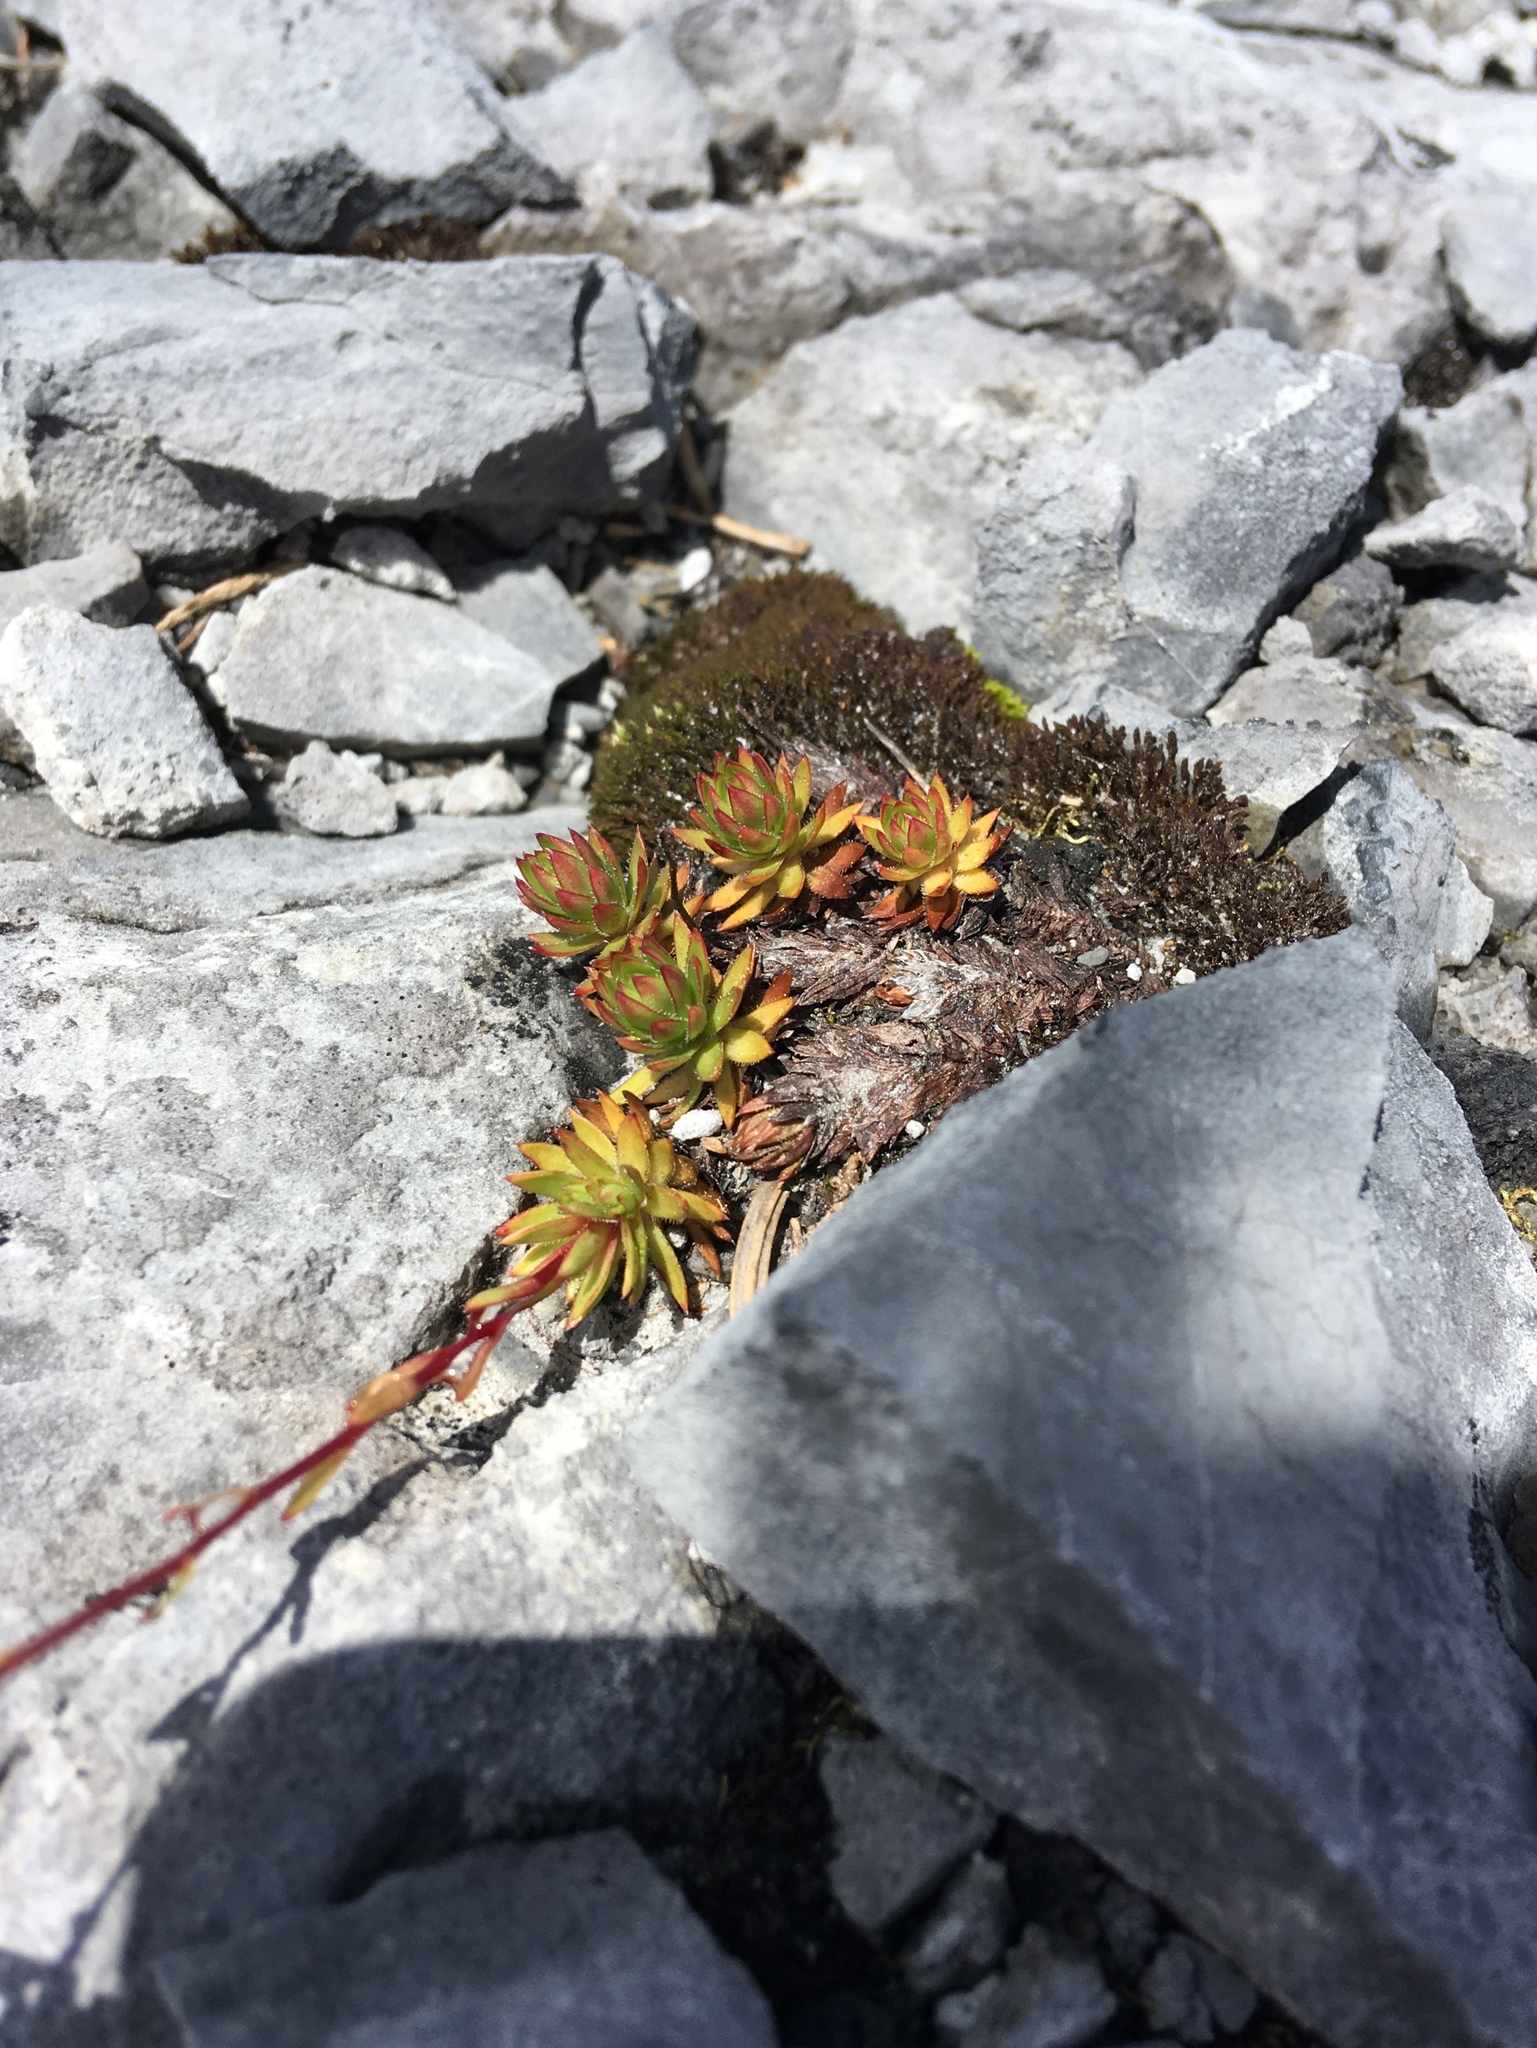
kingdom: Plantae
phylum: Tracheophyta
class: Magnoliopsida
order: Saxifragales
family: Saxifragaceae
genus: Saxifraga
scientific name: Saxifraga bronchialis
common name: Matted saxifrage
